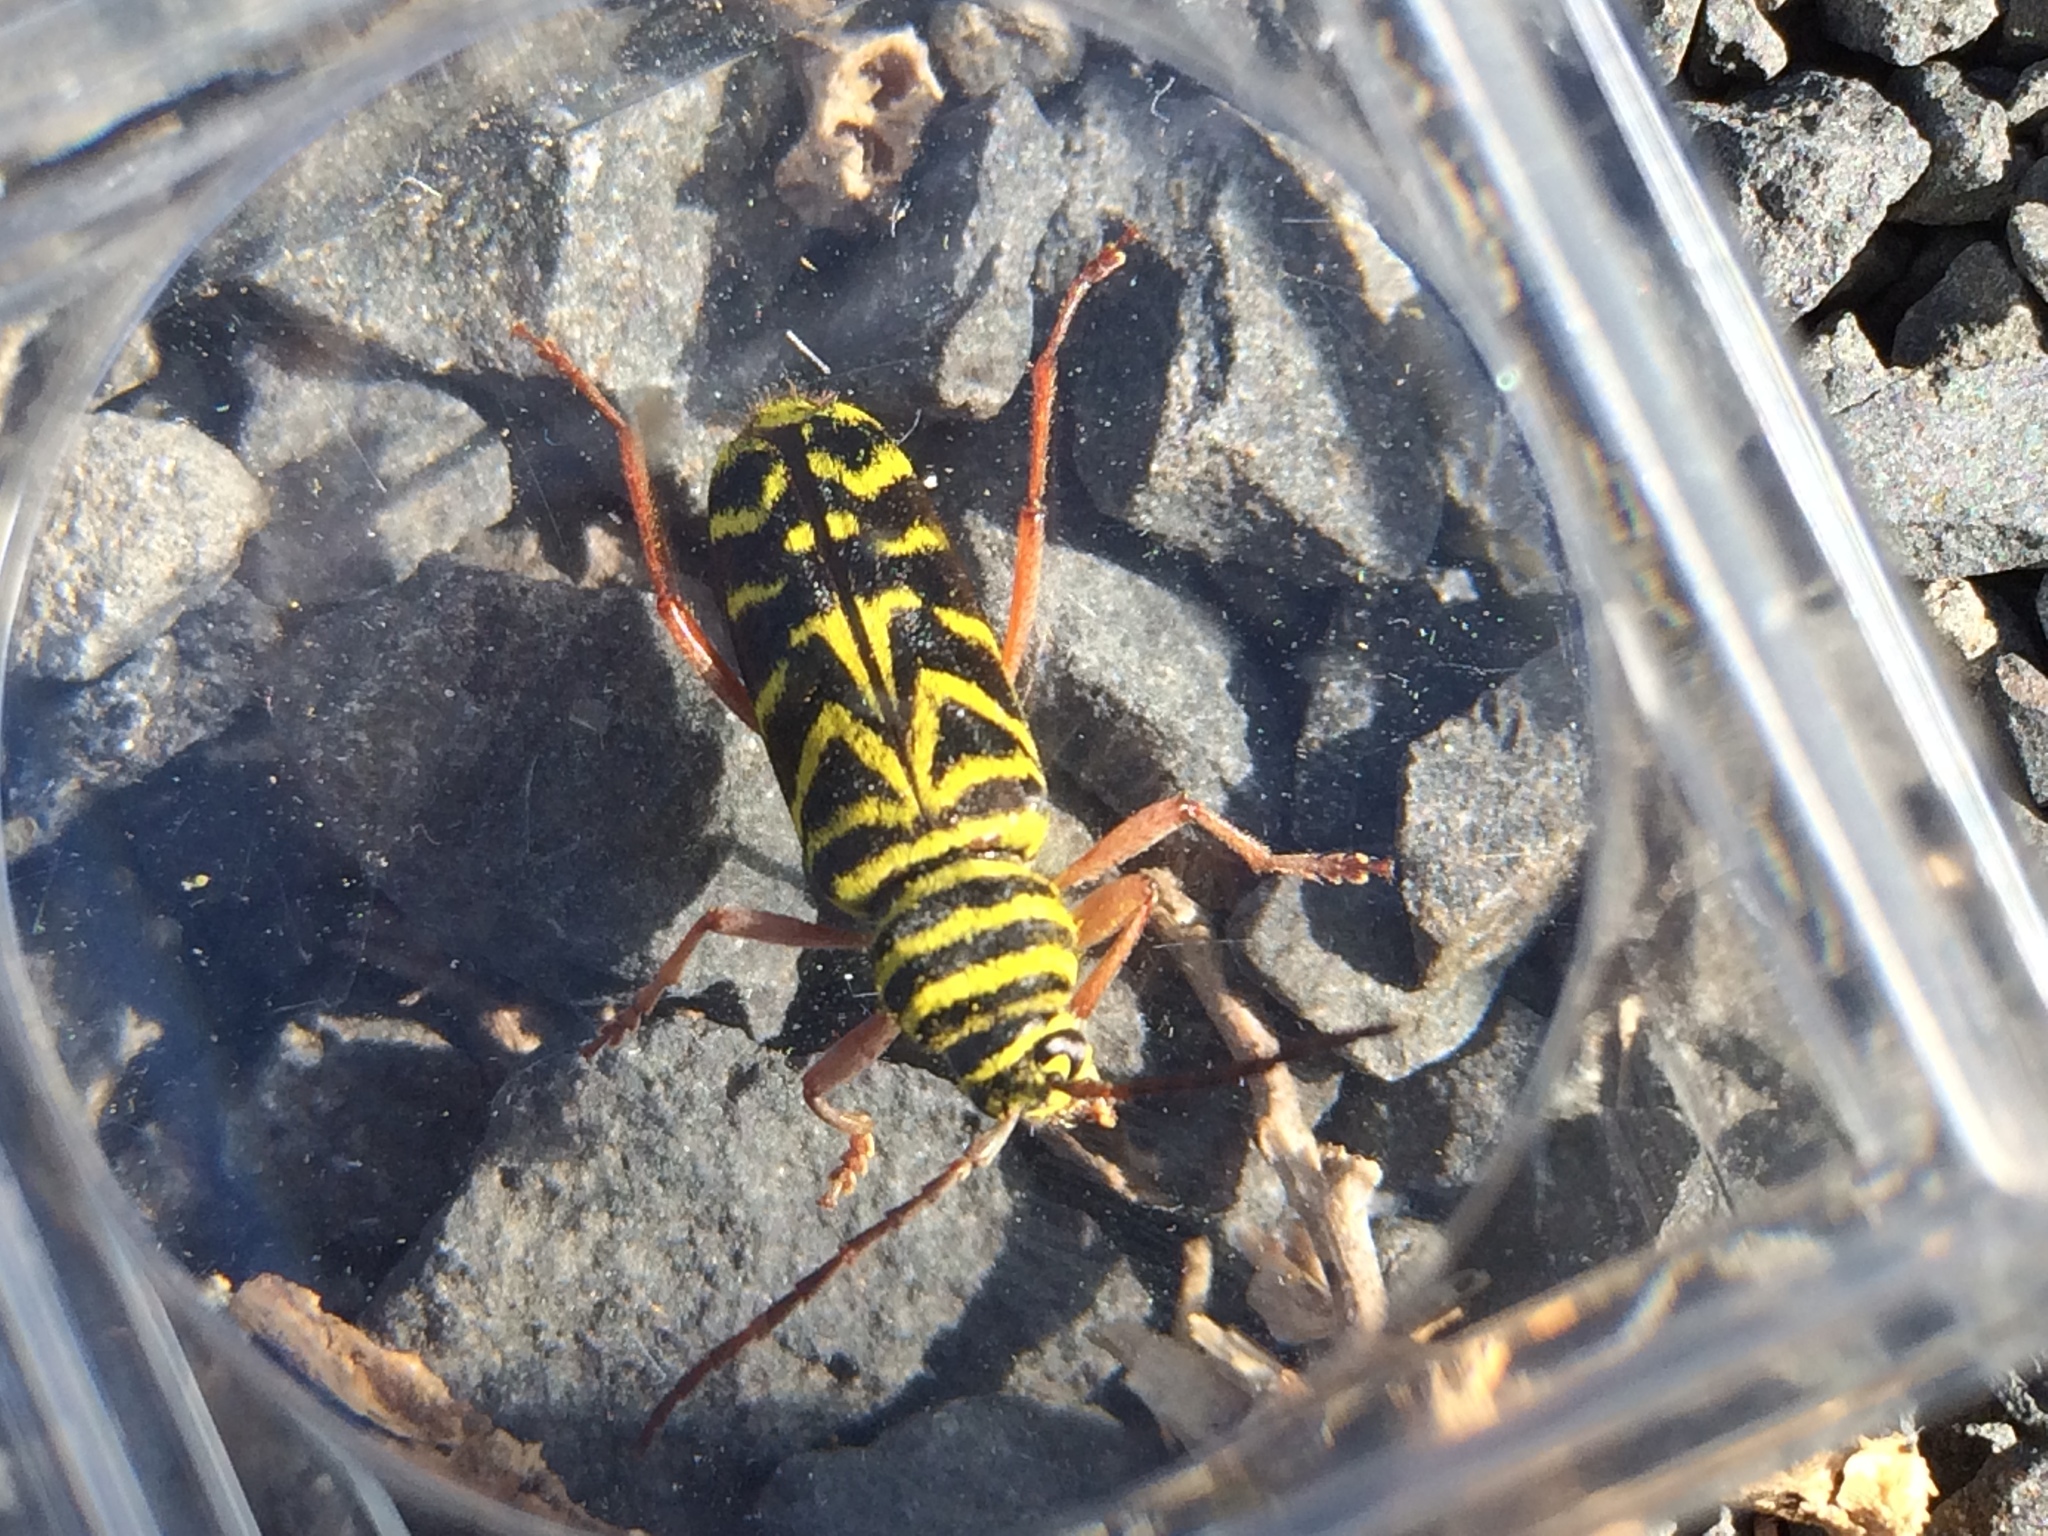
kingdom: Animalia
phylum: Arthropoda
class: Insecta
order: Coleoptera
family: Cerambycidae
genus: Megacyllene
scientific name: Megacyllene robiniae
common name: Locust borer
